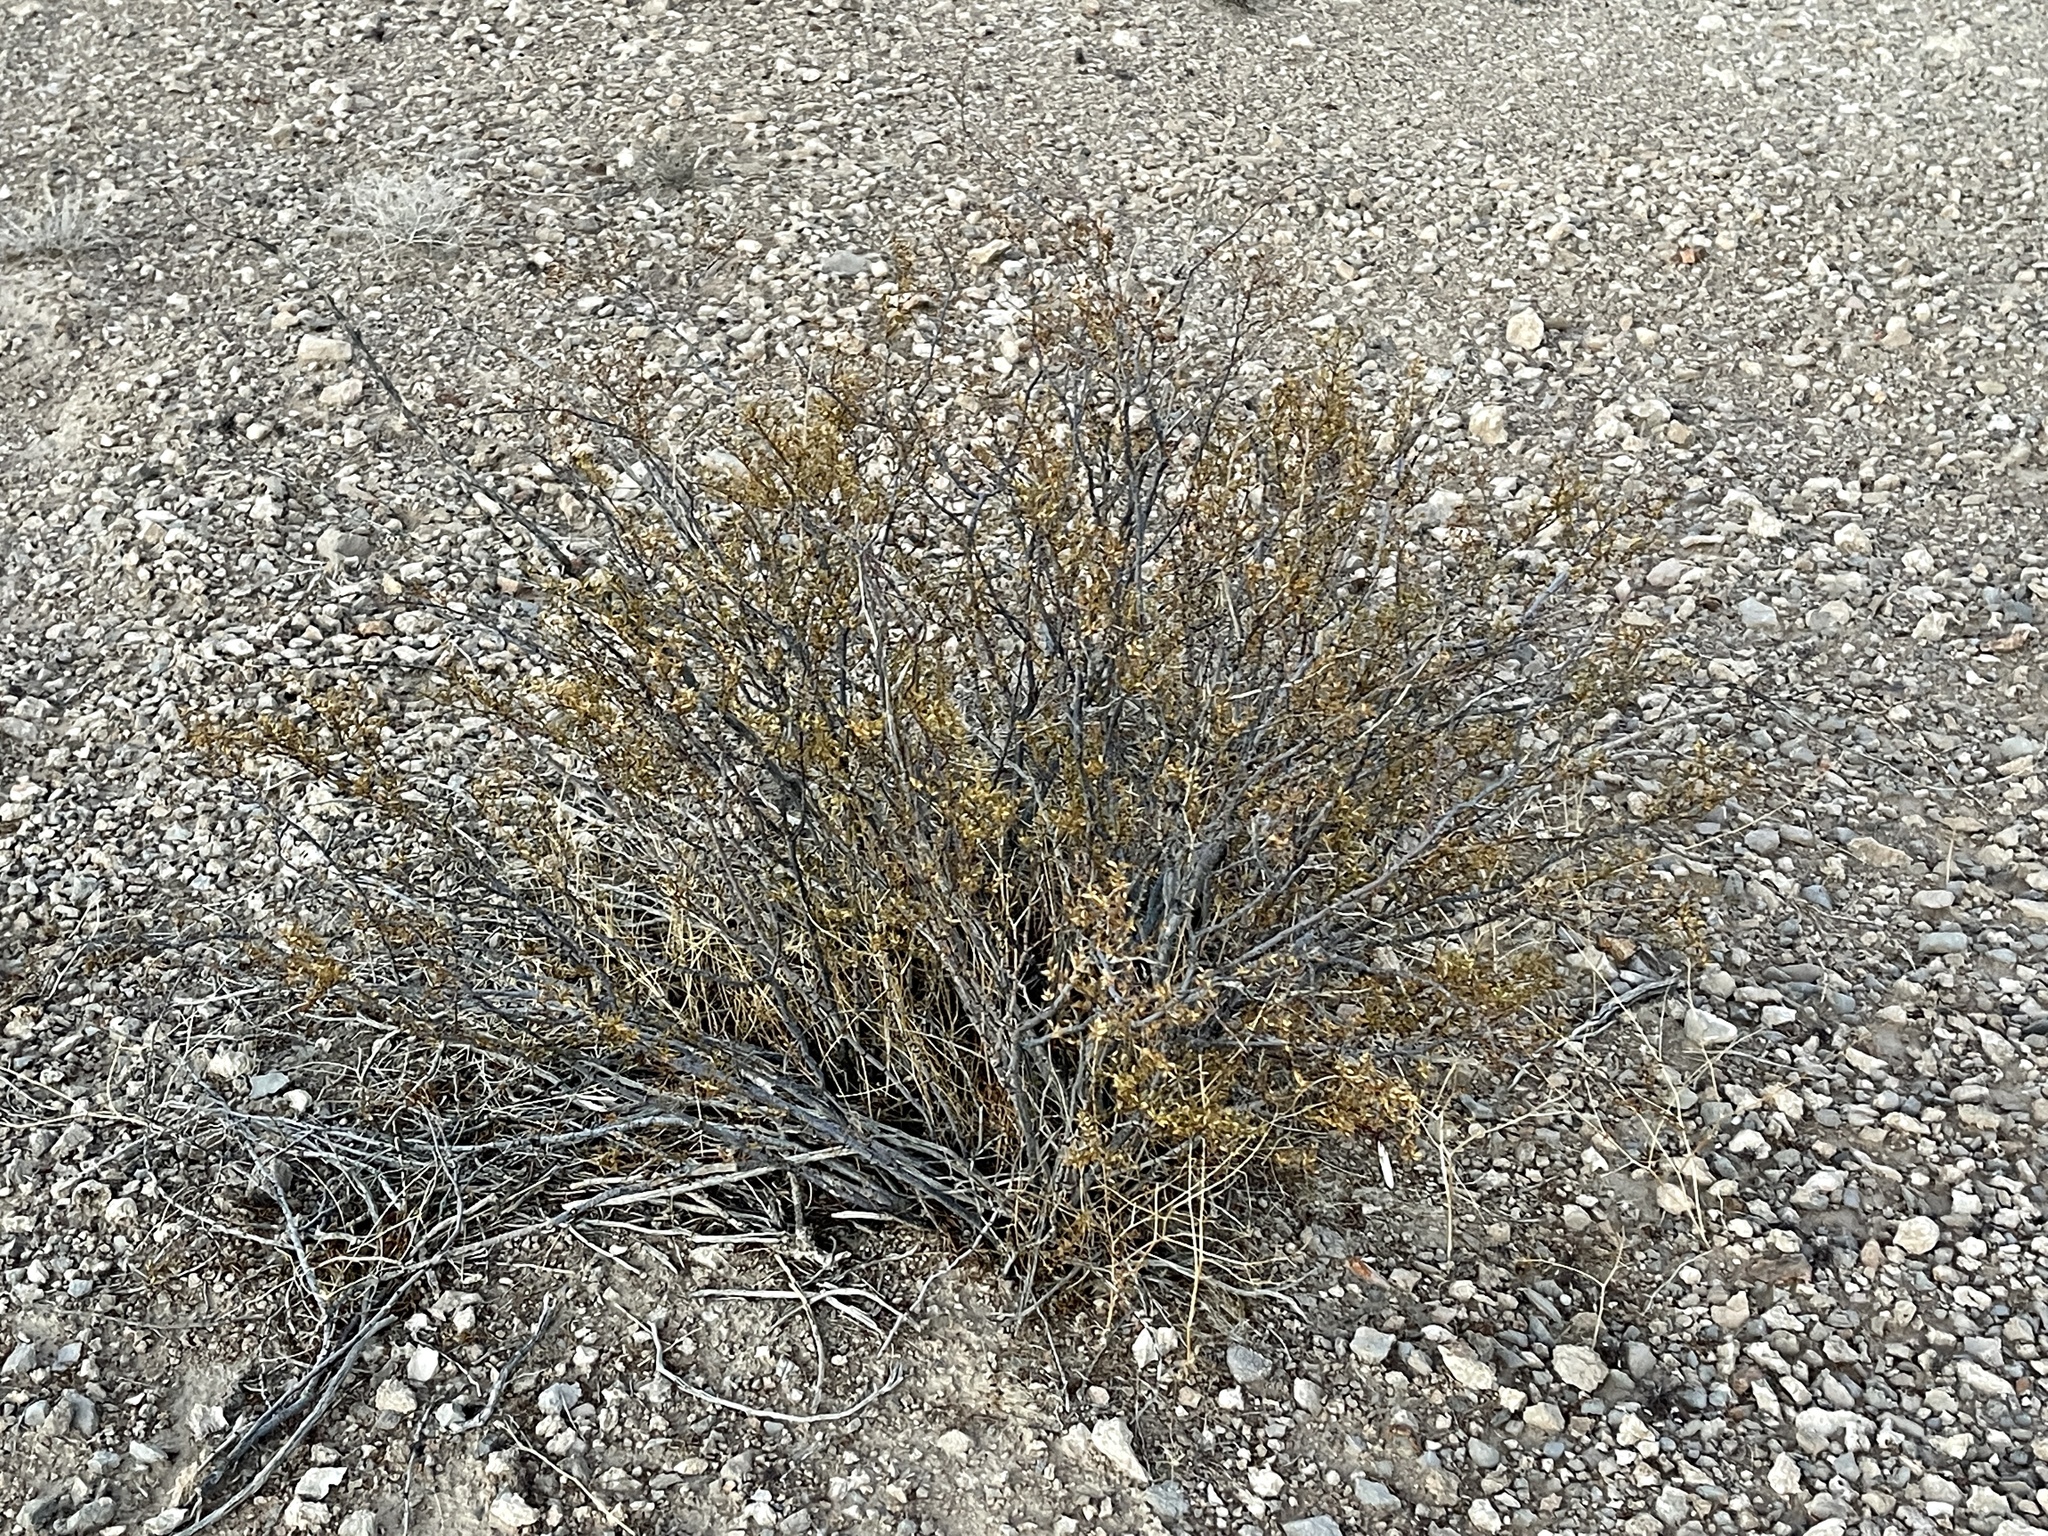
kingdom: Plantae
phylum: Tracheophyta
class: Magnoliopsida
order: Zygophyllales
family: Zygophyllaceae
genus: Larrea
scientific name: Larrea tridentata
